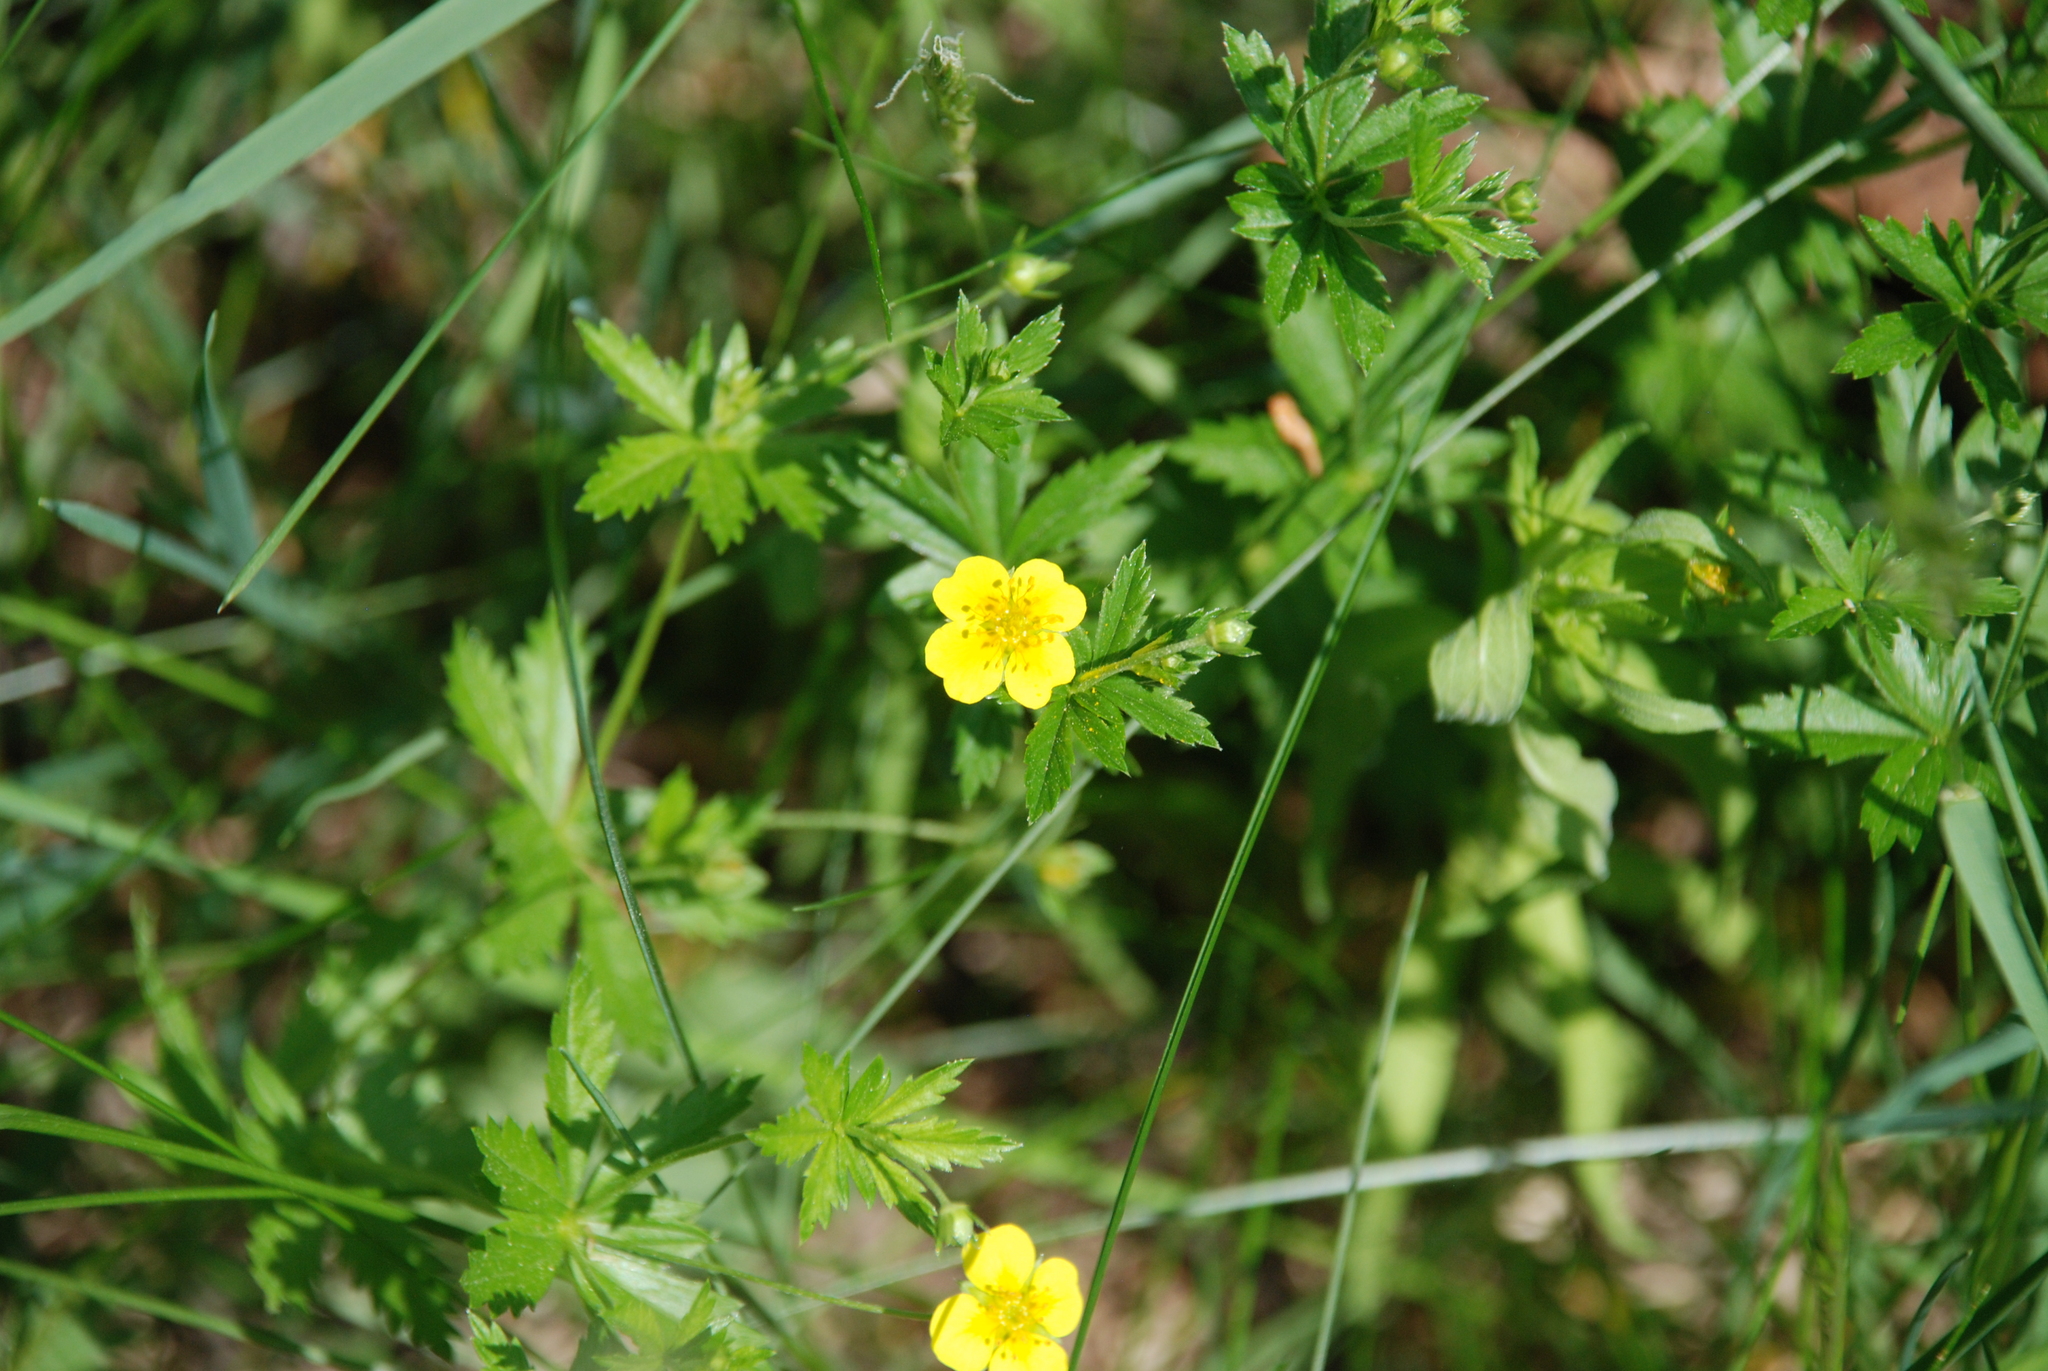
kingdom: Plantae
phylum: Tracheophyta
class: Magnoliopsida
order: Rosales
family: Rosaceae
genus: Potentilla
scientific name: Potentilla erecta
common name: Tormentil
